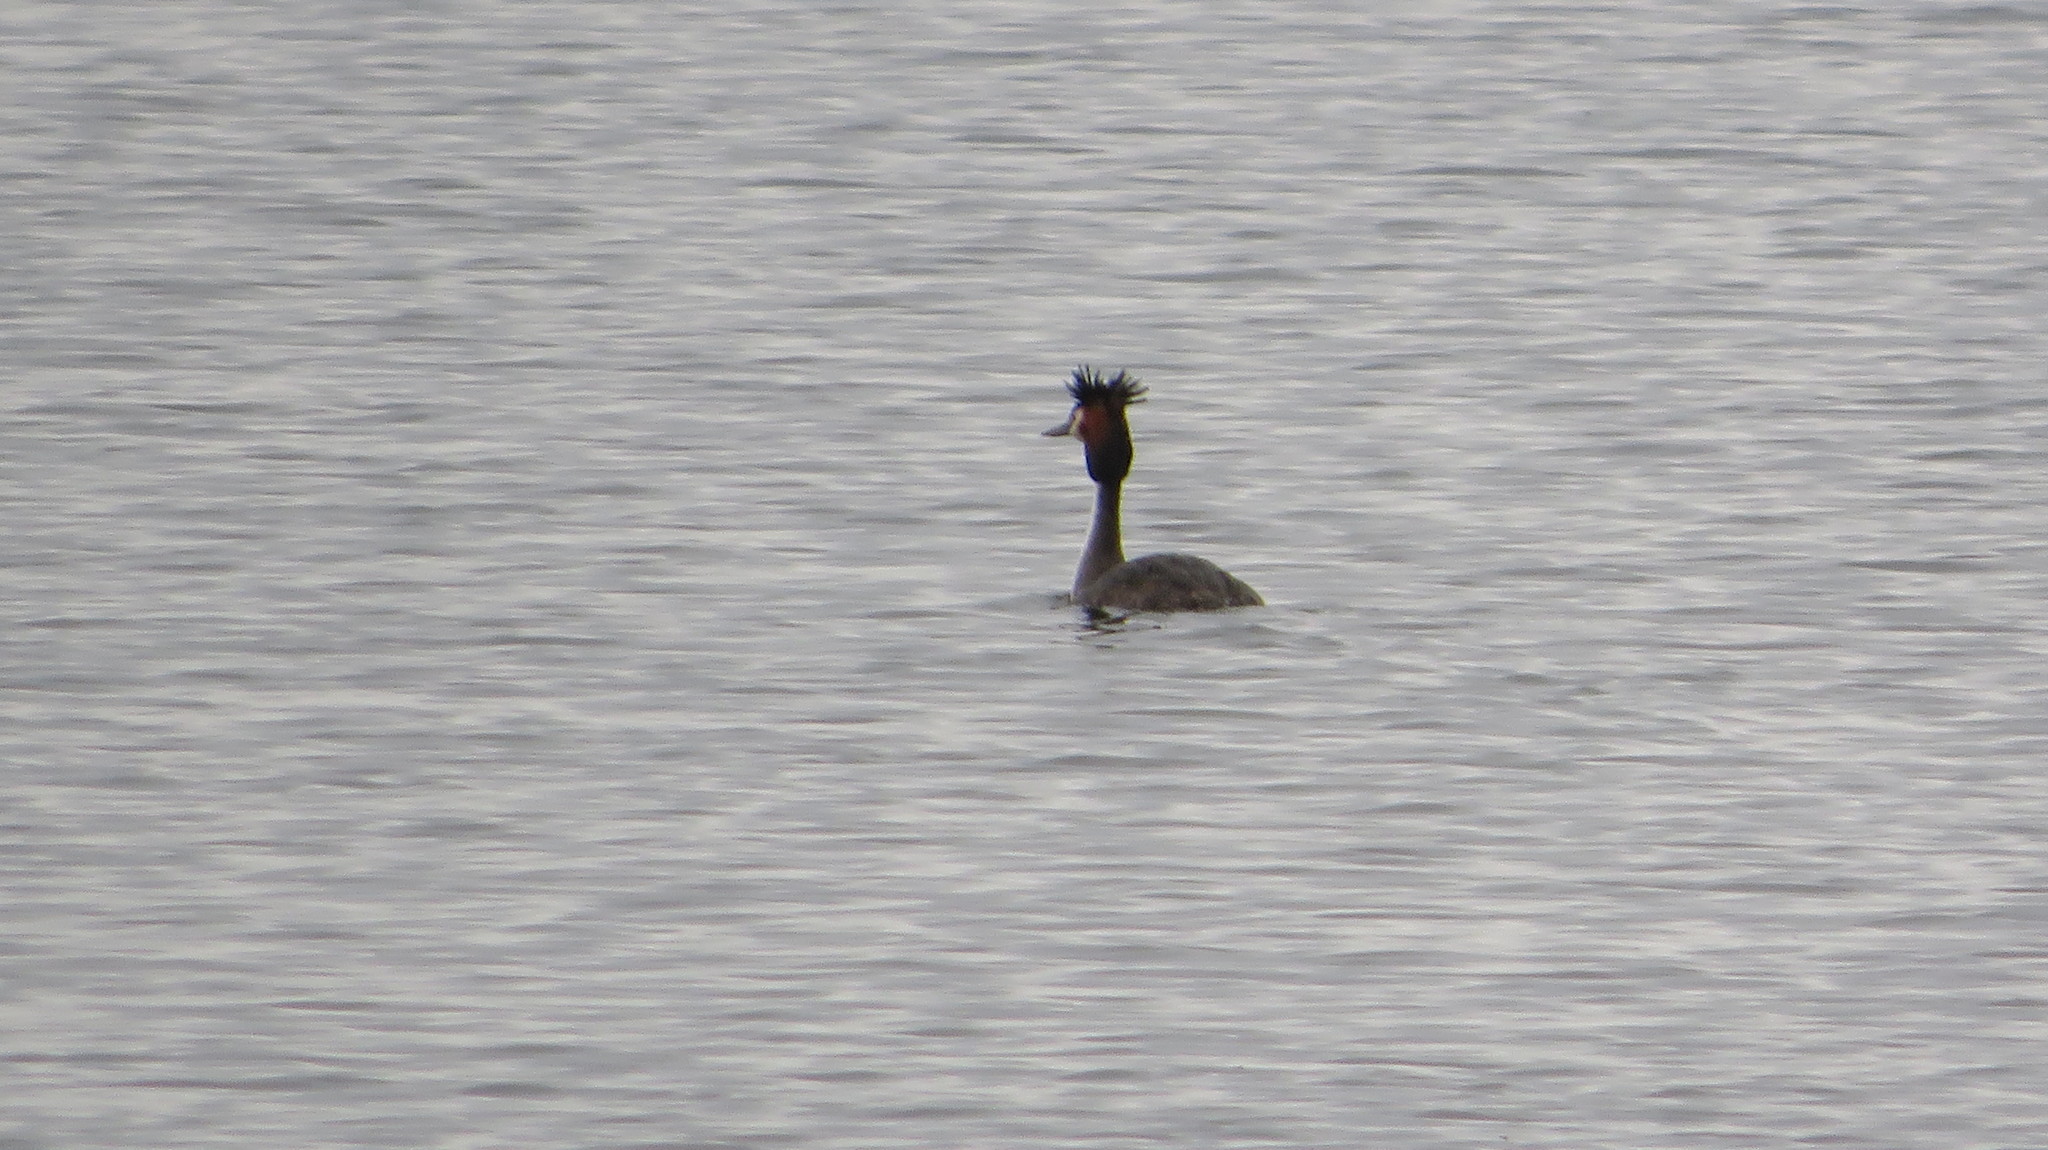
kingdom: Animalia
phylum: Chordata
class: Aves
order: Podicipediformes
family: Podicipedidae
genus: Podiceps
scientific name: Podiceps cristatus
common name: Great crested grebe
